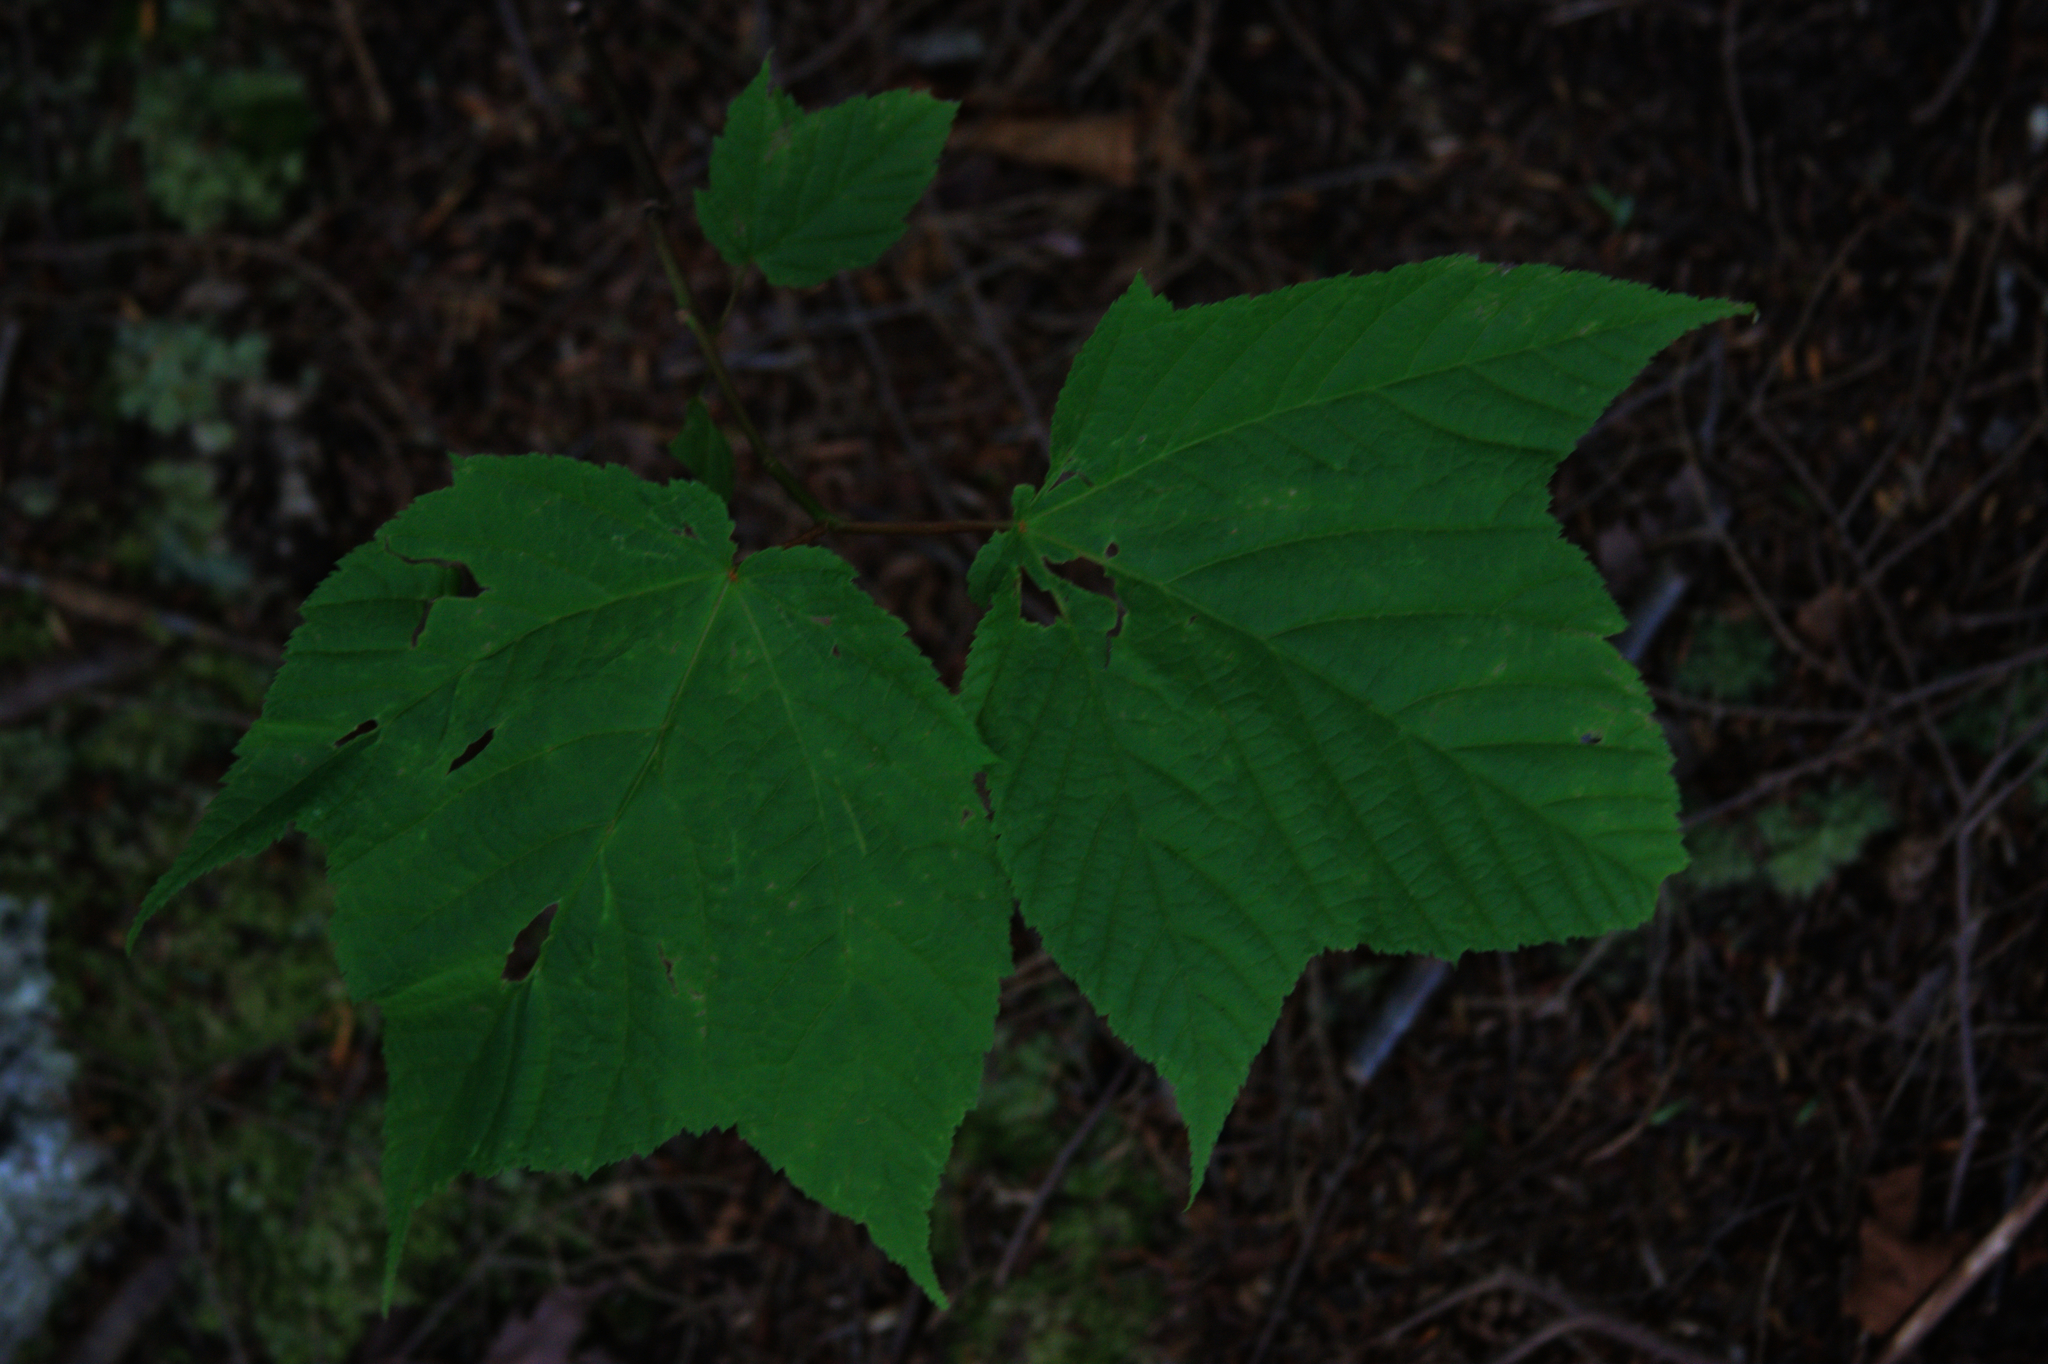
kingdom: Plantae
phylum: Tracheophyta
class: Magnoliopsida
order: Sapindales
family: Sapindaceae
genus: Acer
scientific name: Acer pensylvanicum
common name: Moosewood
